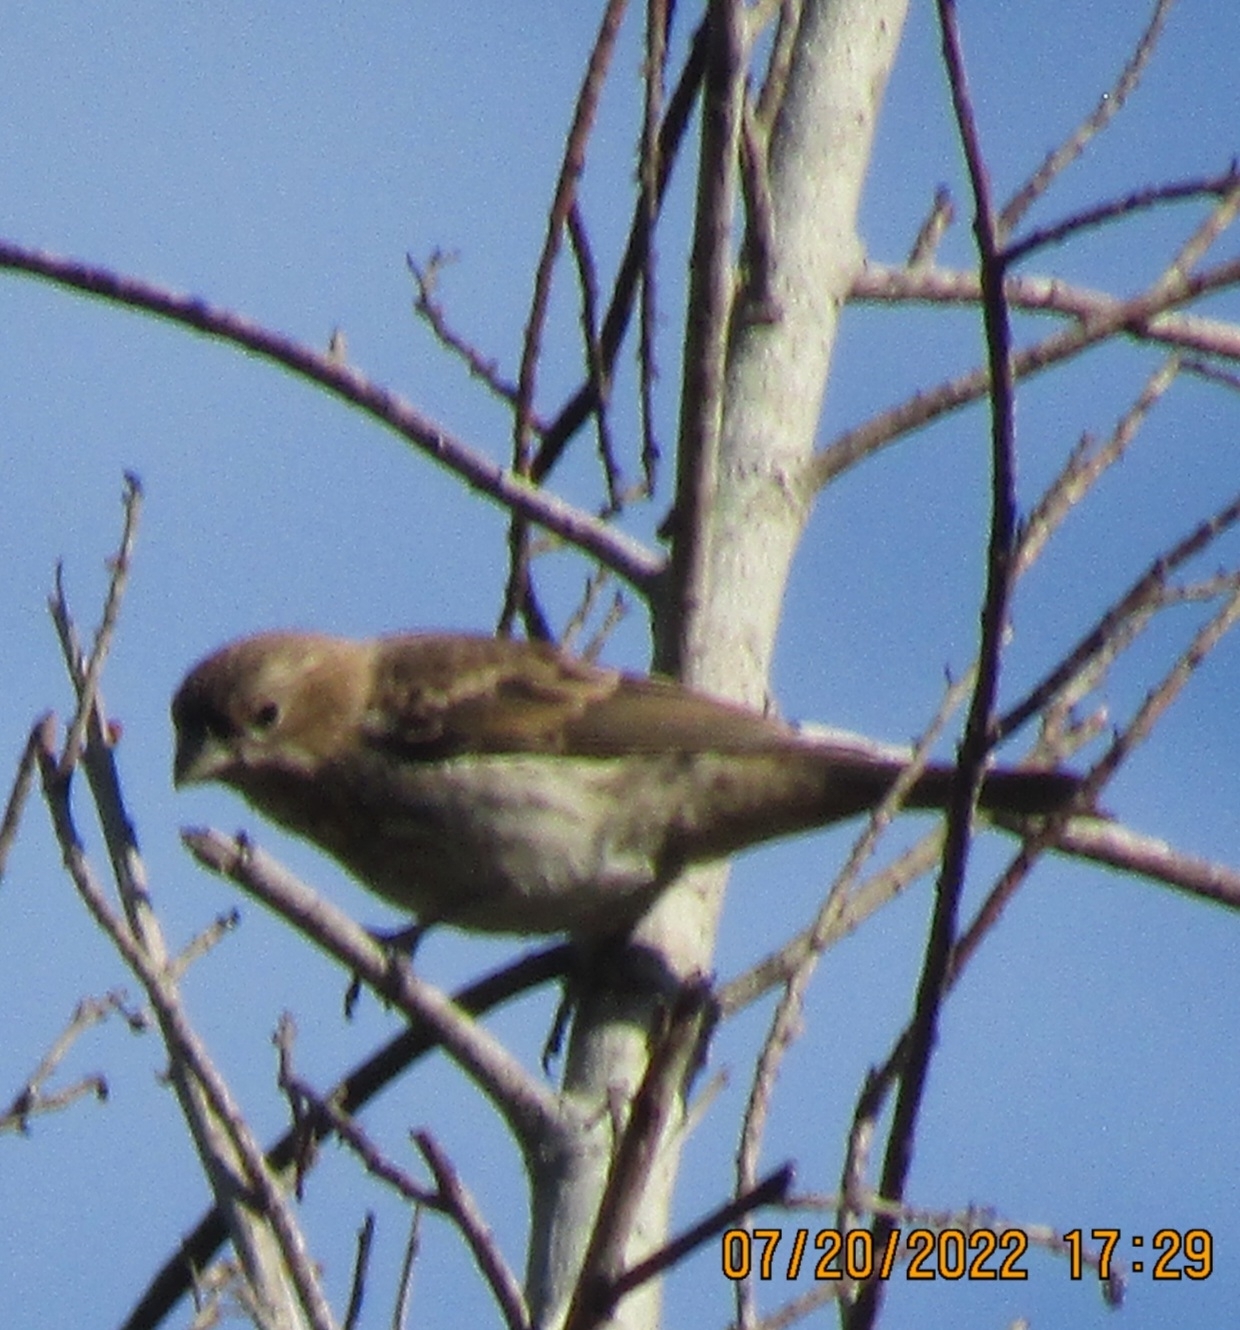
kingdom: Animalia
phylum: Chordata
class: Aves
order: Passeriformes
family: Fringillidae
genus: Haemorhous
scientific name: Haemorhous mexicanus
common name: House finch
